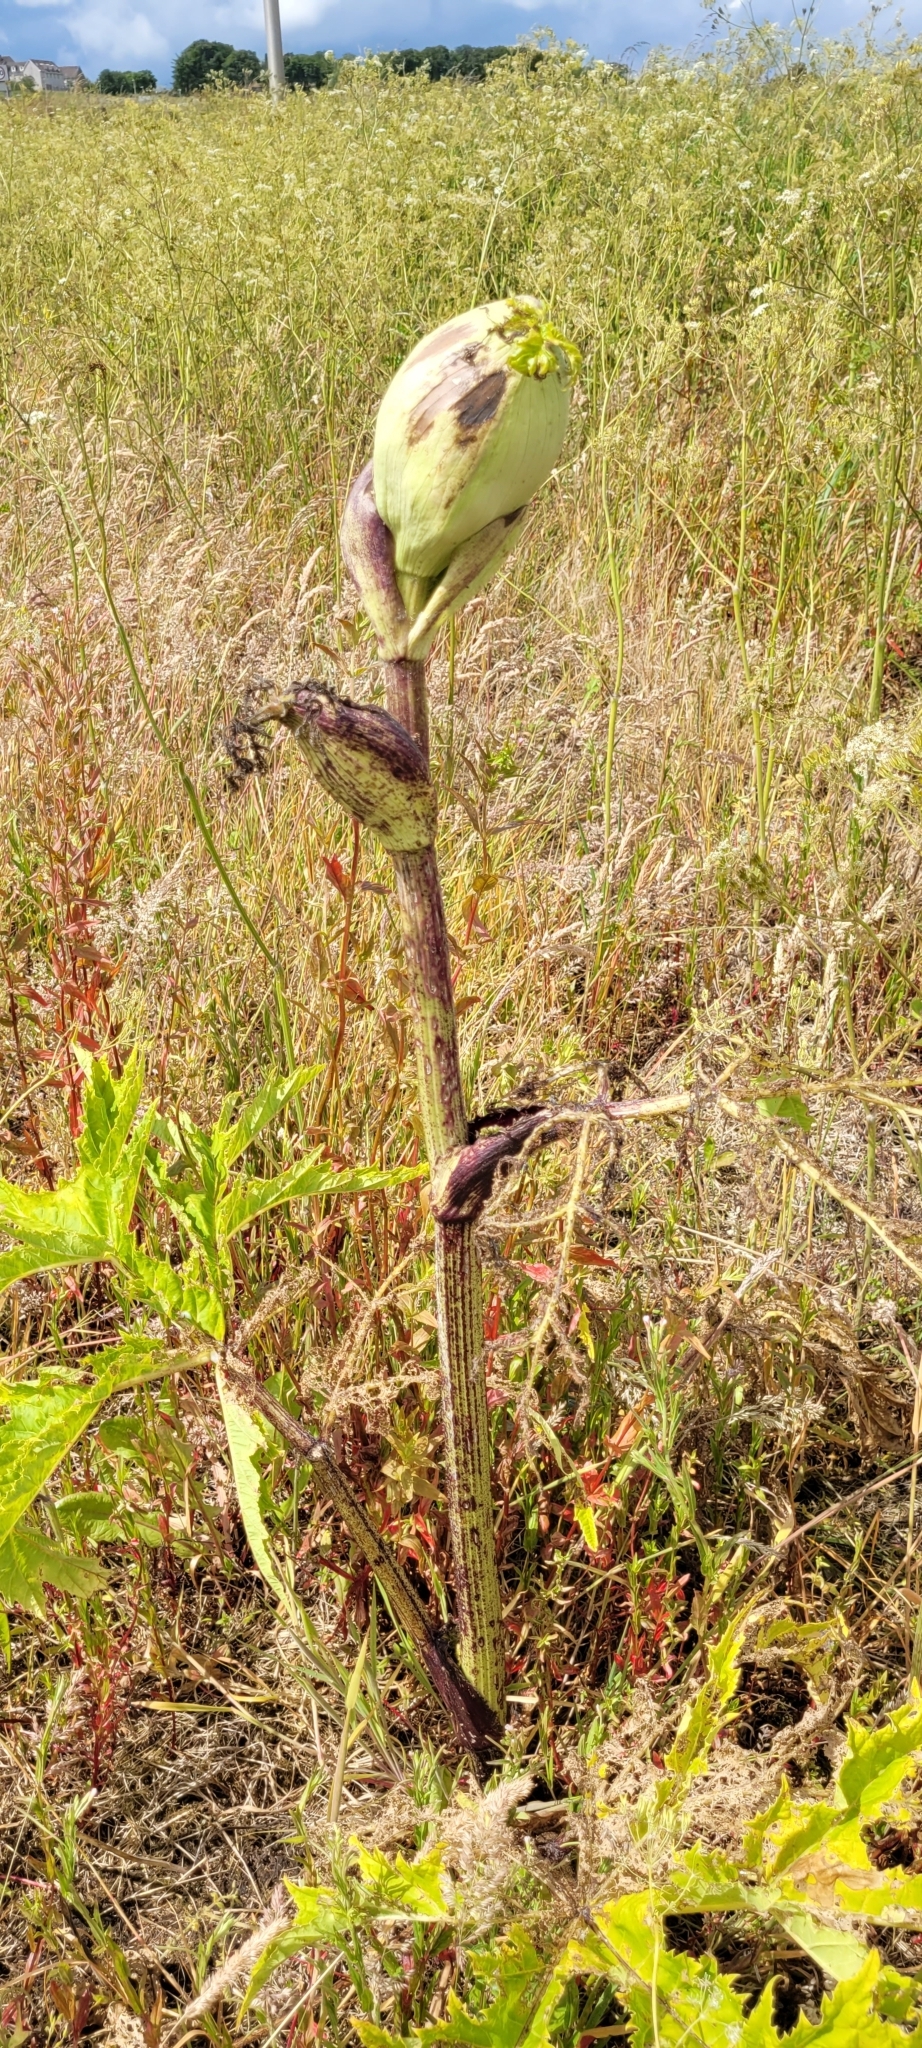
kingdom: Plantae
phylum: Tracheophyta
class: Magnoliopsida
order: Apiales
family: Apiaceae
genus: Heracleum
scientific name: Heracleum mantegazzianum
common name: Giant hogweed
